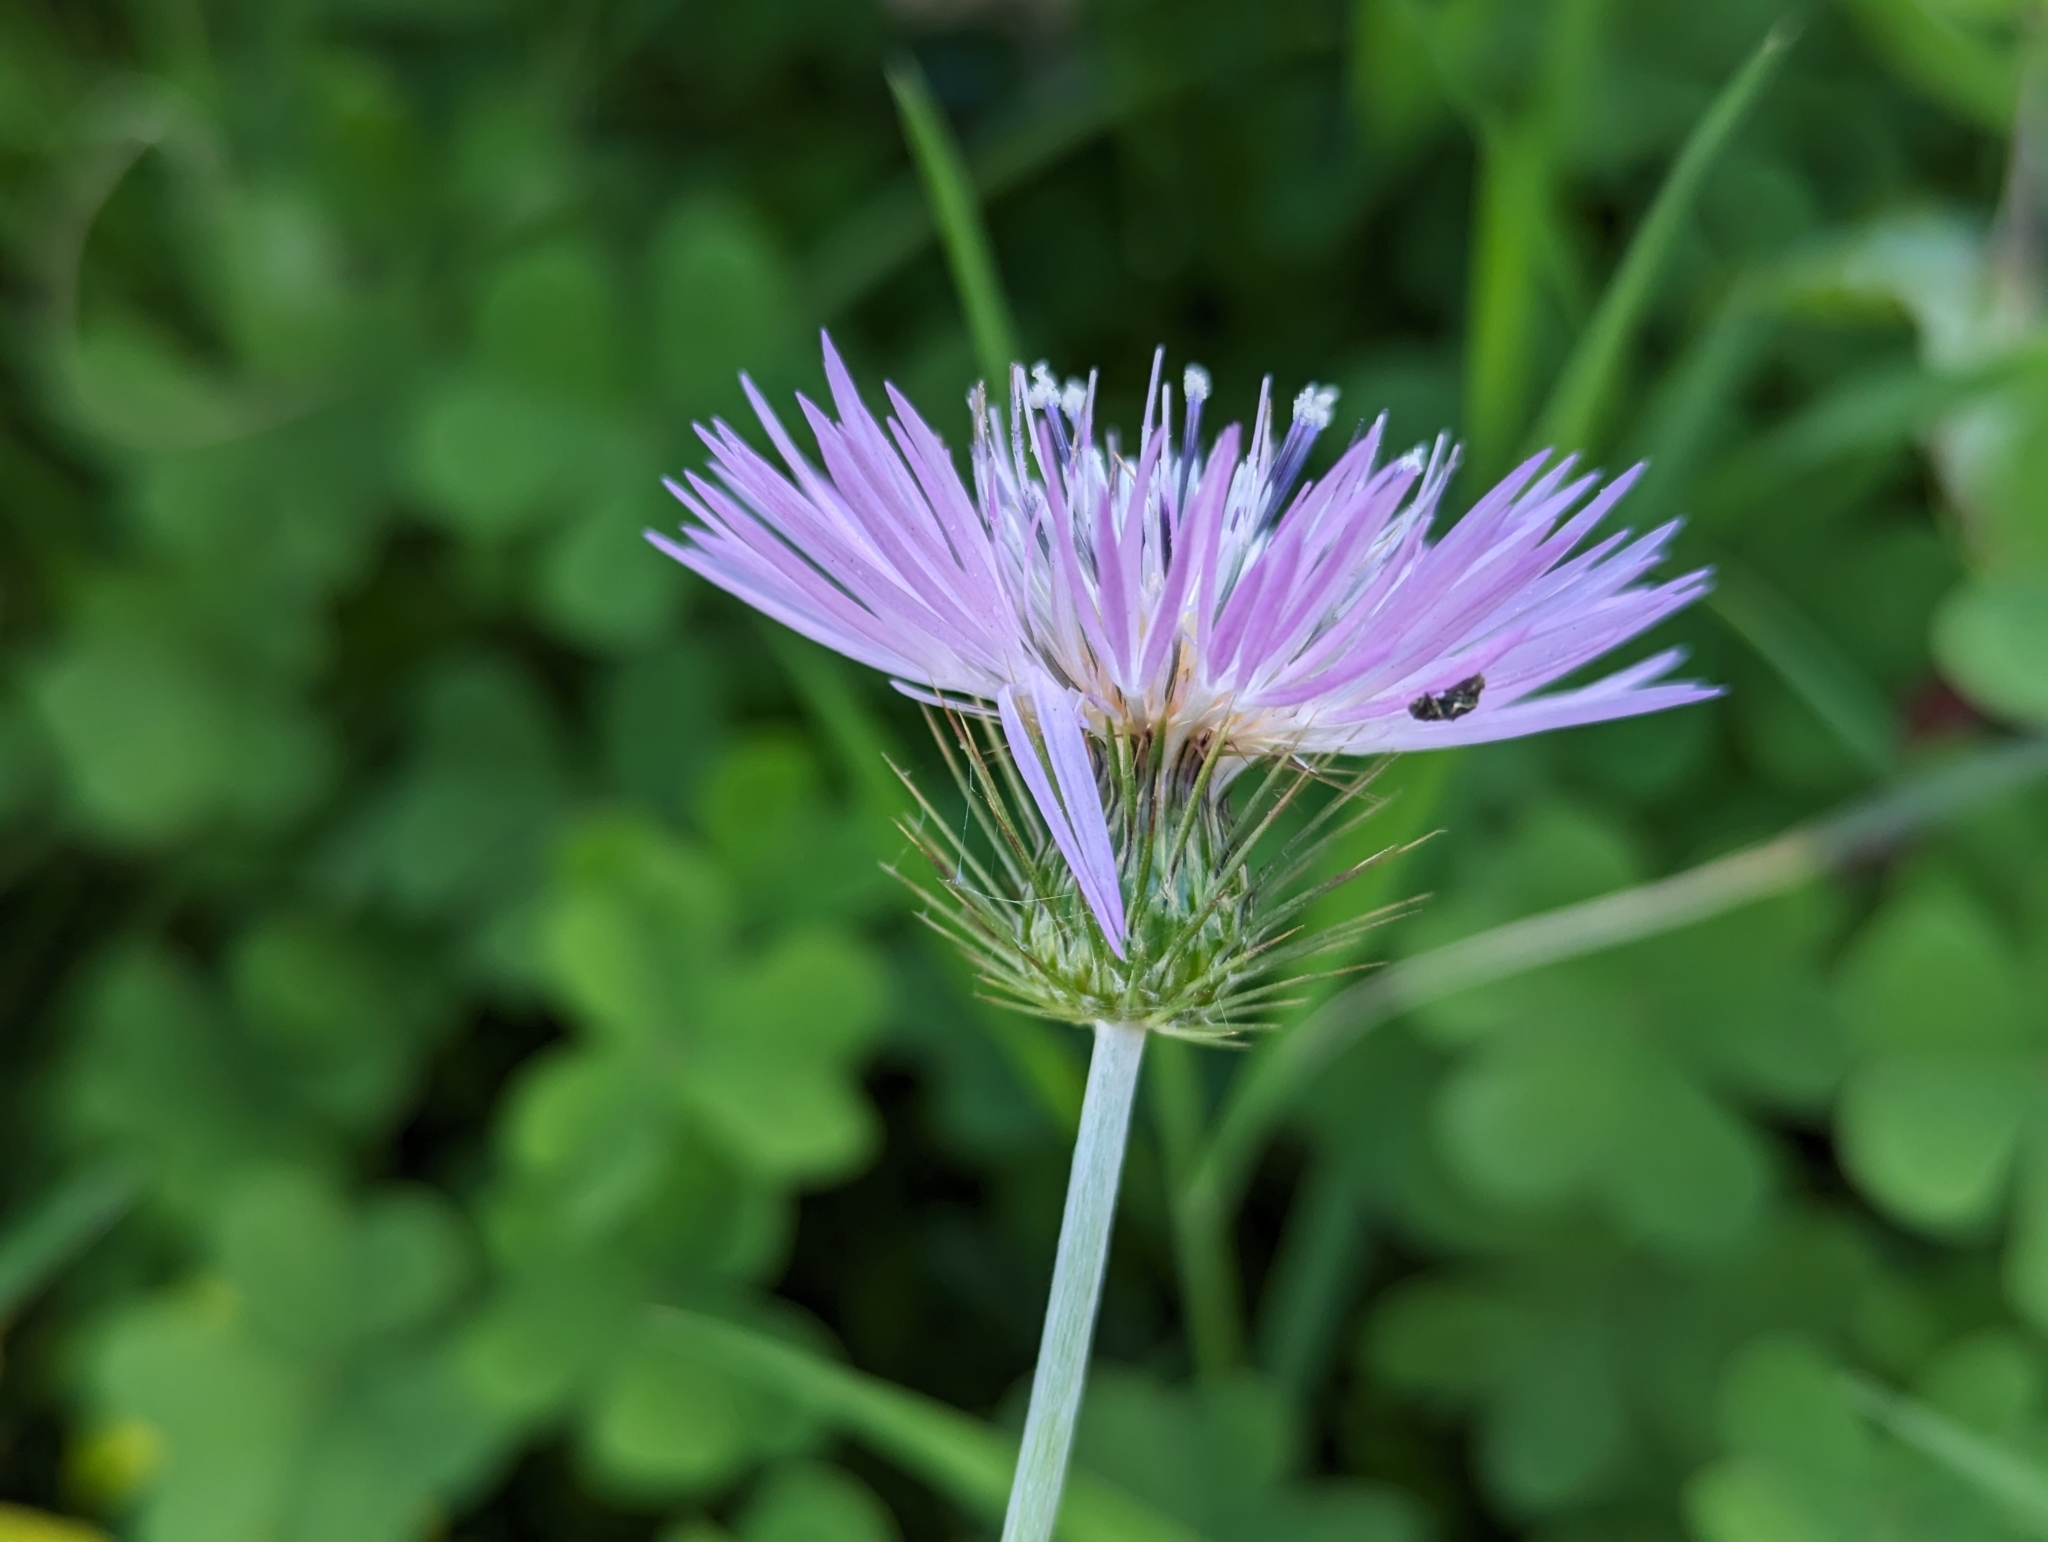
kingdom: Plantae
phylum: Tracheophyta
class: Magnoliopsida
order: Asterales
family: Asteraceae
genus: Galactites
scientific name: Galactites tomentosa
